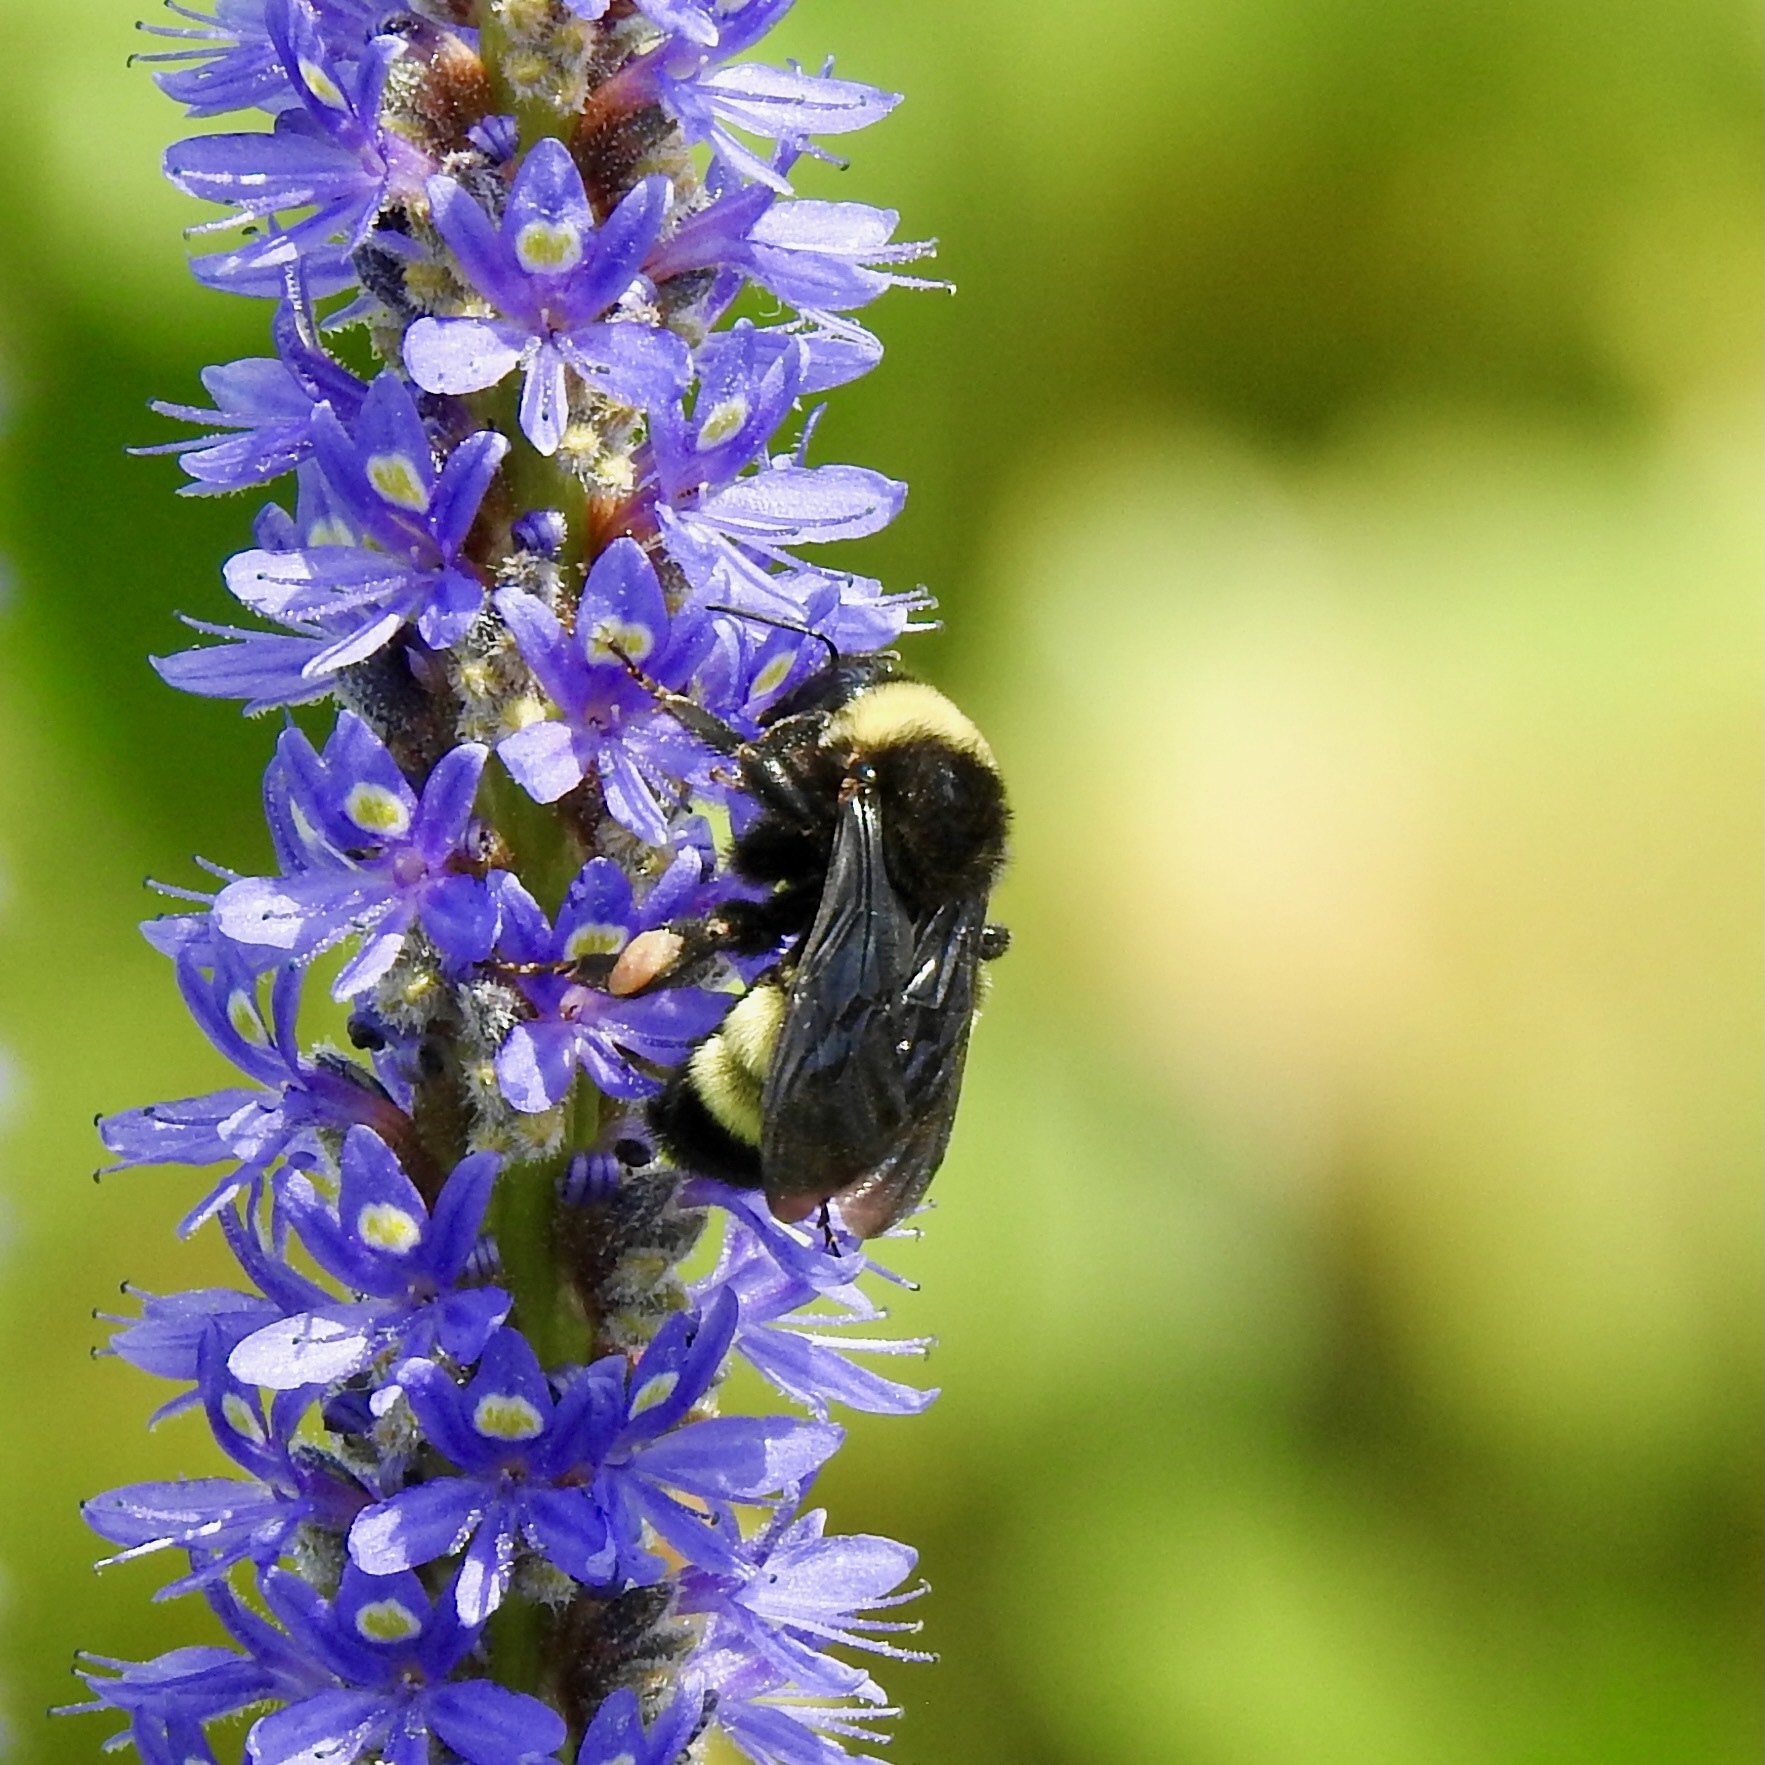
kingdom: Animalia
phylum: Arthropoda
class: Insecta
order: Hymenoptera
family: Apidae
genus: Bombus
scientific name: Bombus pensylvanicus
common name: Bumble bee
